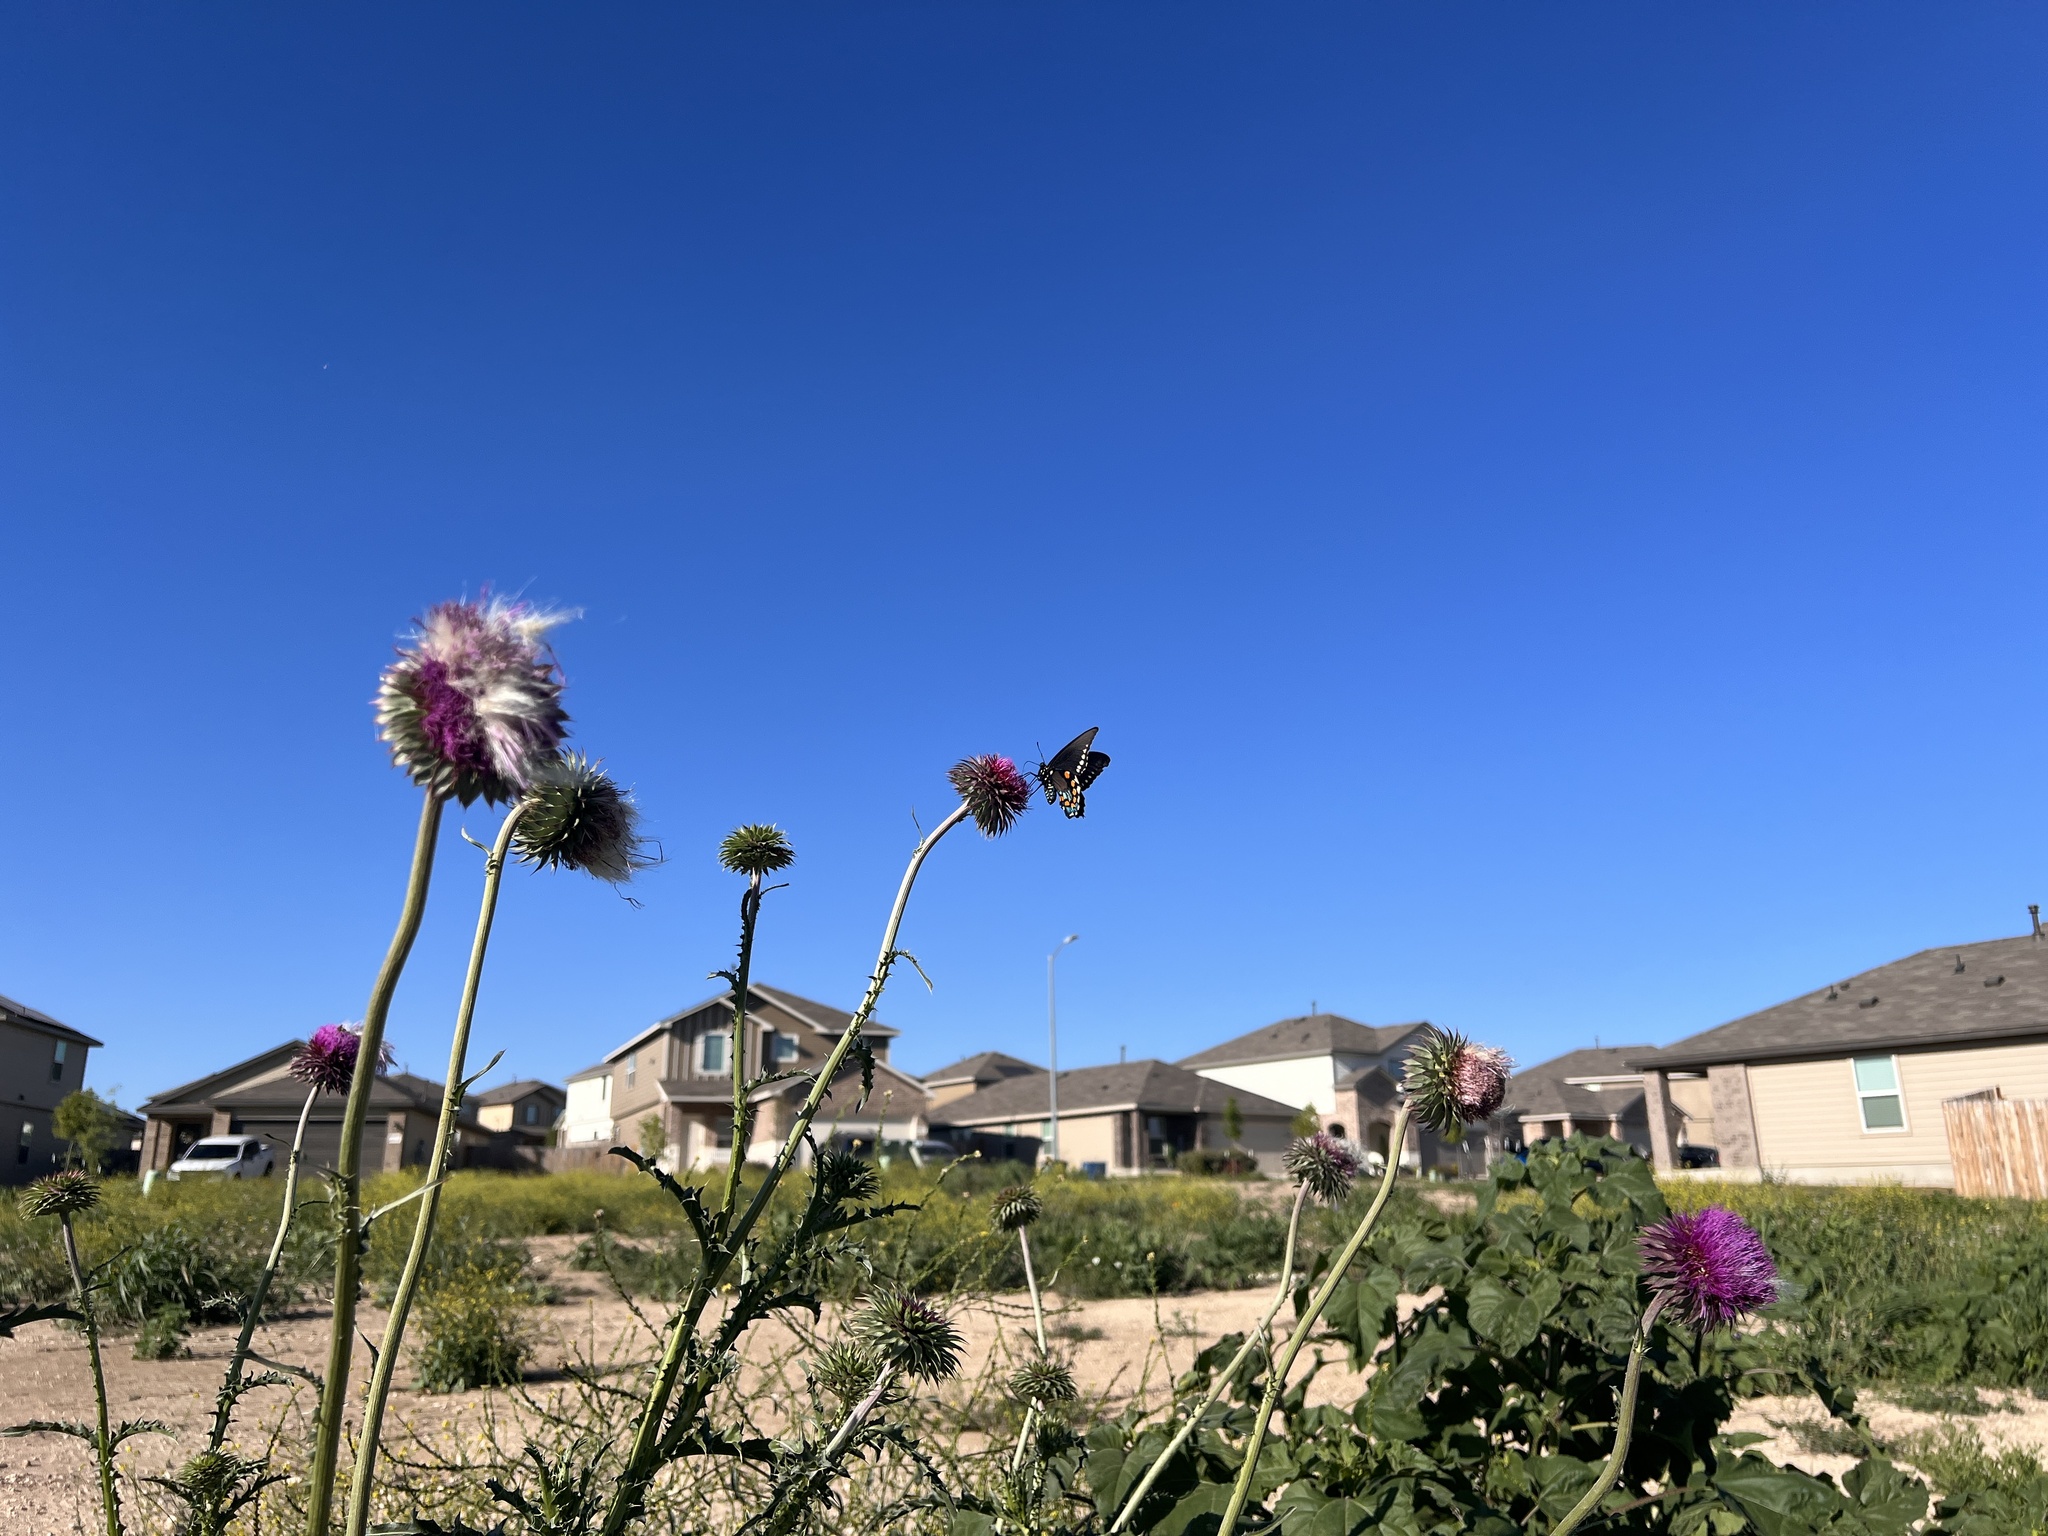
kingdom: Animalia
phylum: Arthropoda
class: Insecta
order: Lepidoptera
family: Papilionidae
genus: Battus
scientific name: Battus philenor
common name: Pipevine swallowtail
